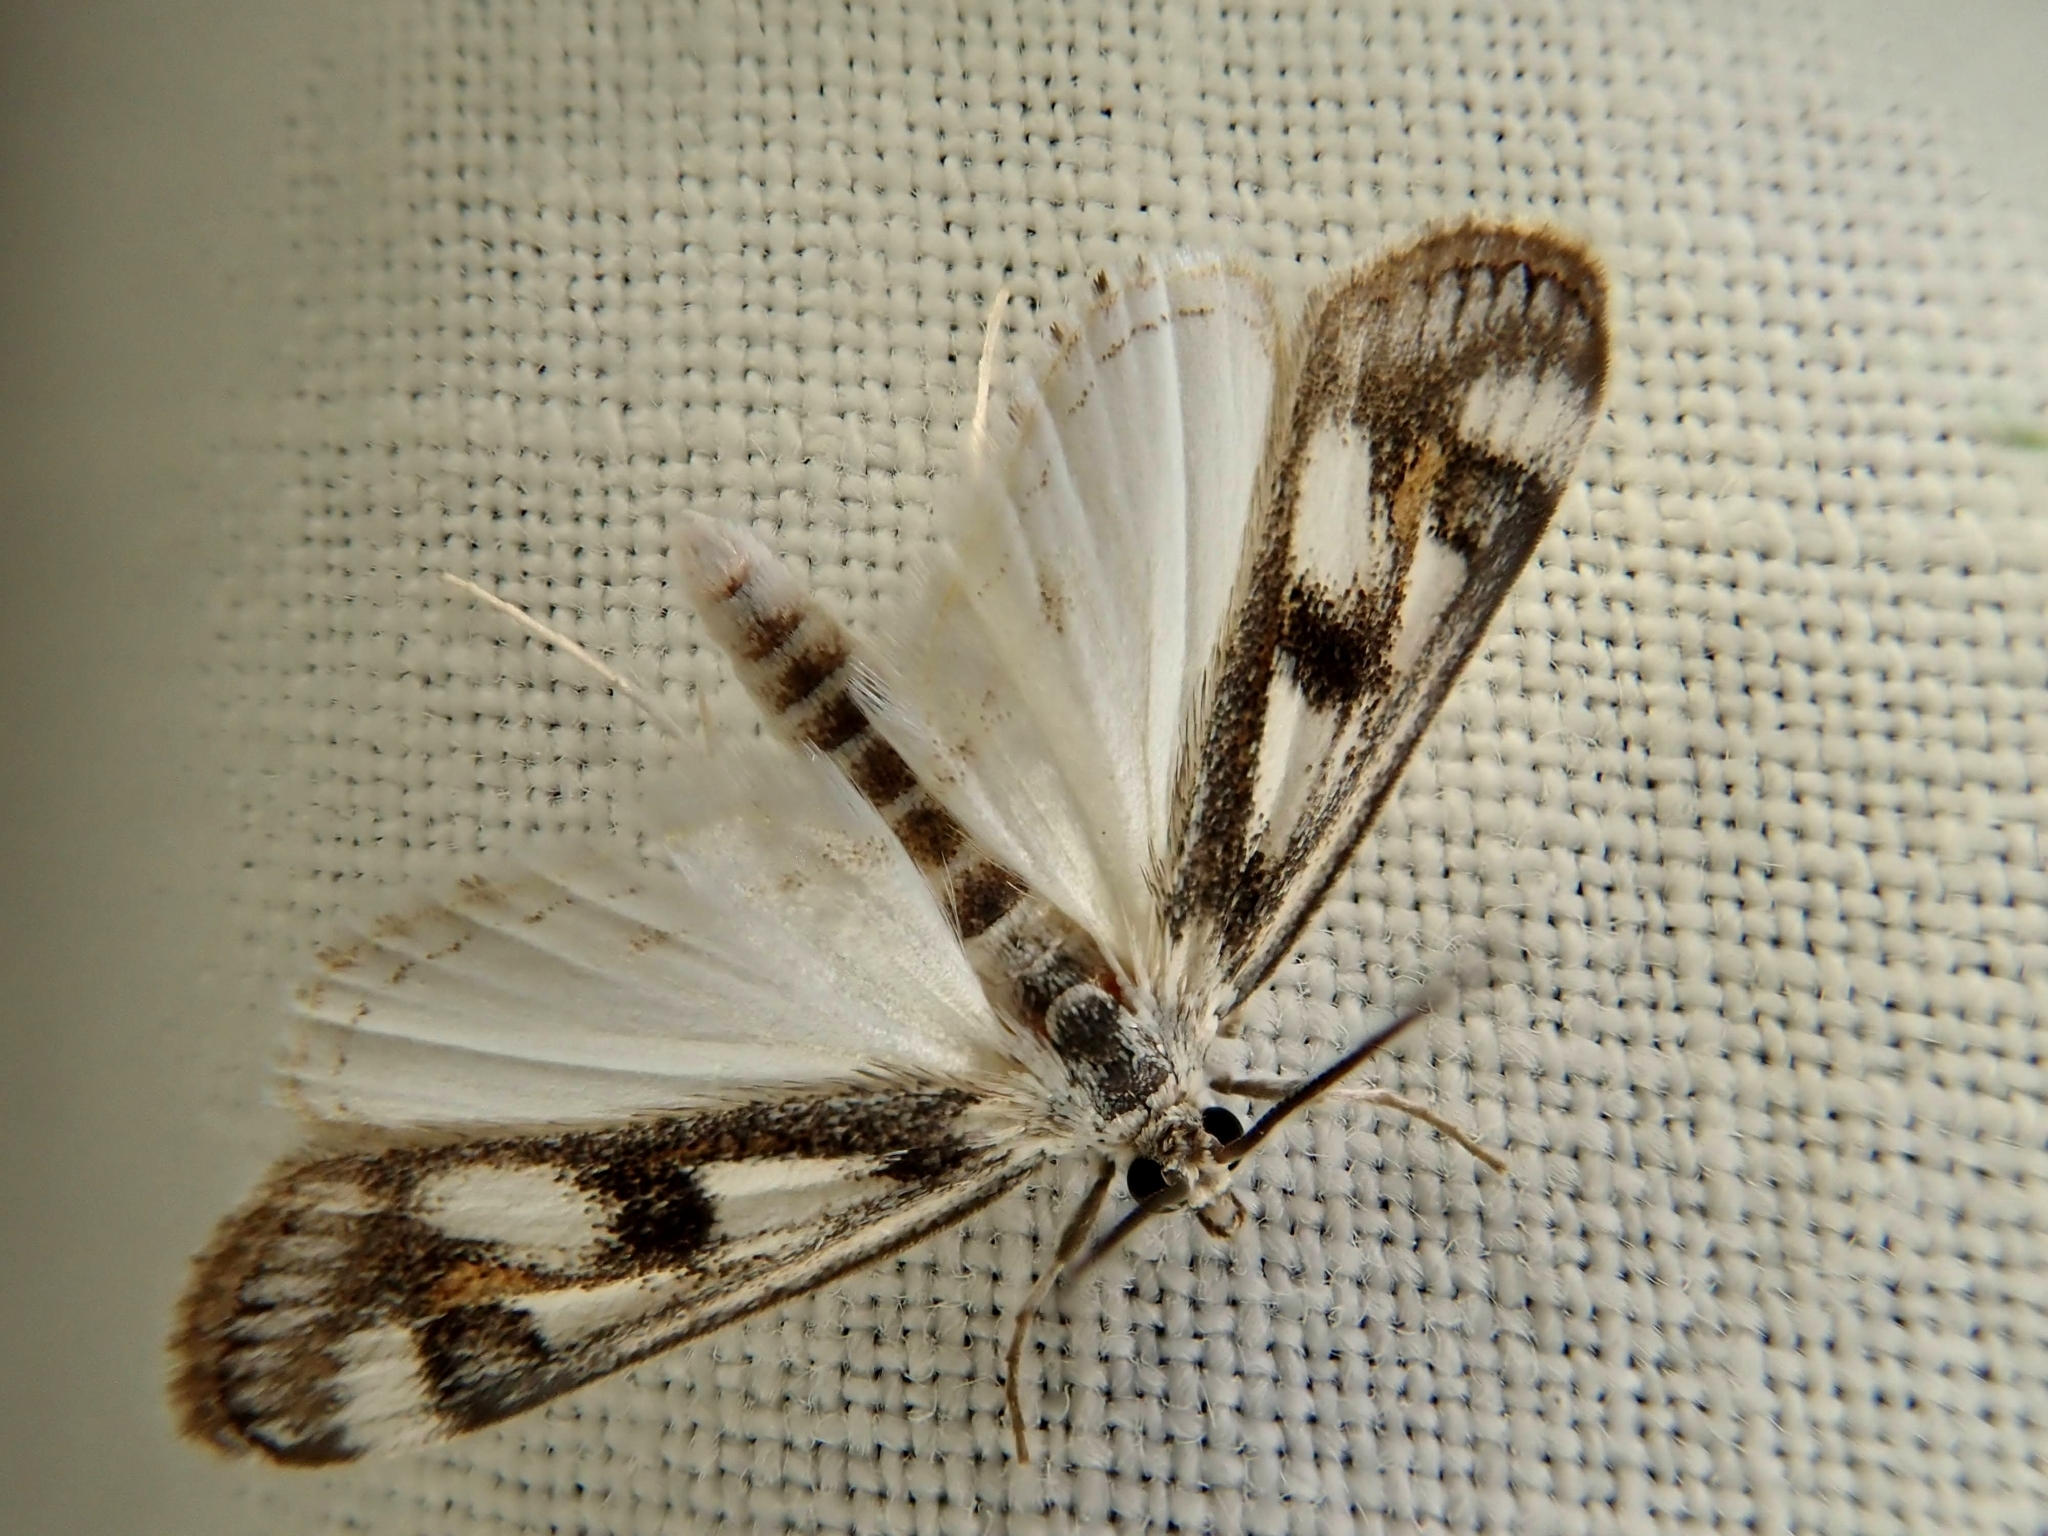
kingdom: Animalia
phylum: Arthropoda
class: Insecta
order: Lepidoptera
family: Crambidae
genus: Parapoynx
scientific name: Parapoynx maculalis
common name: Polymorphic pondweed moth
